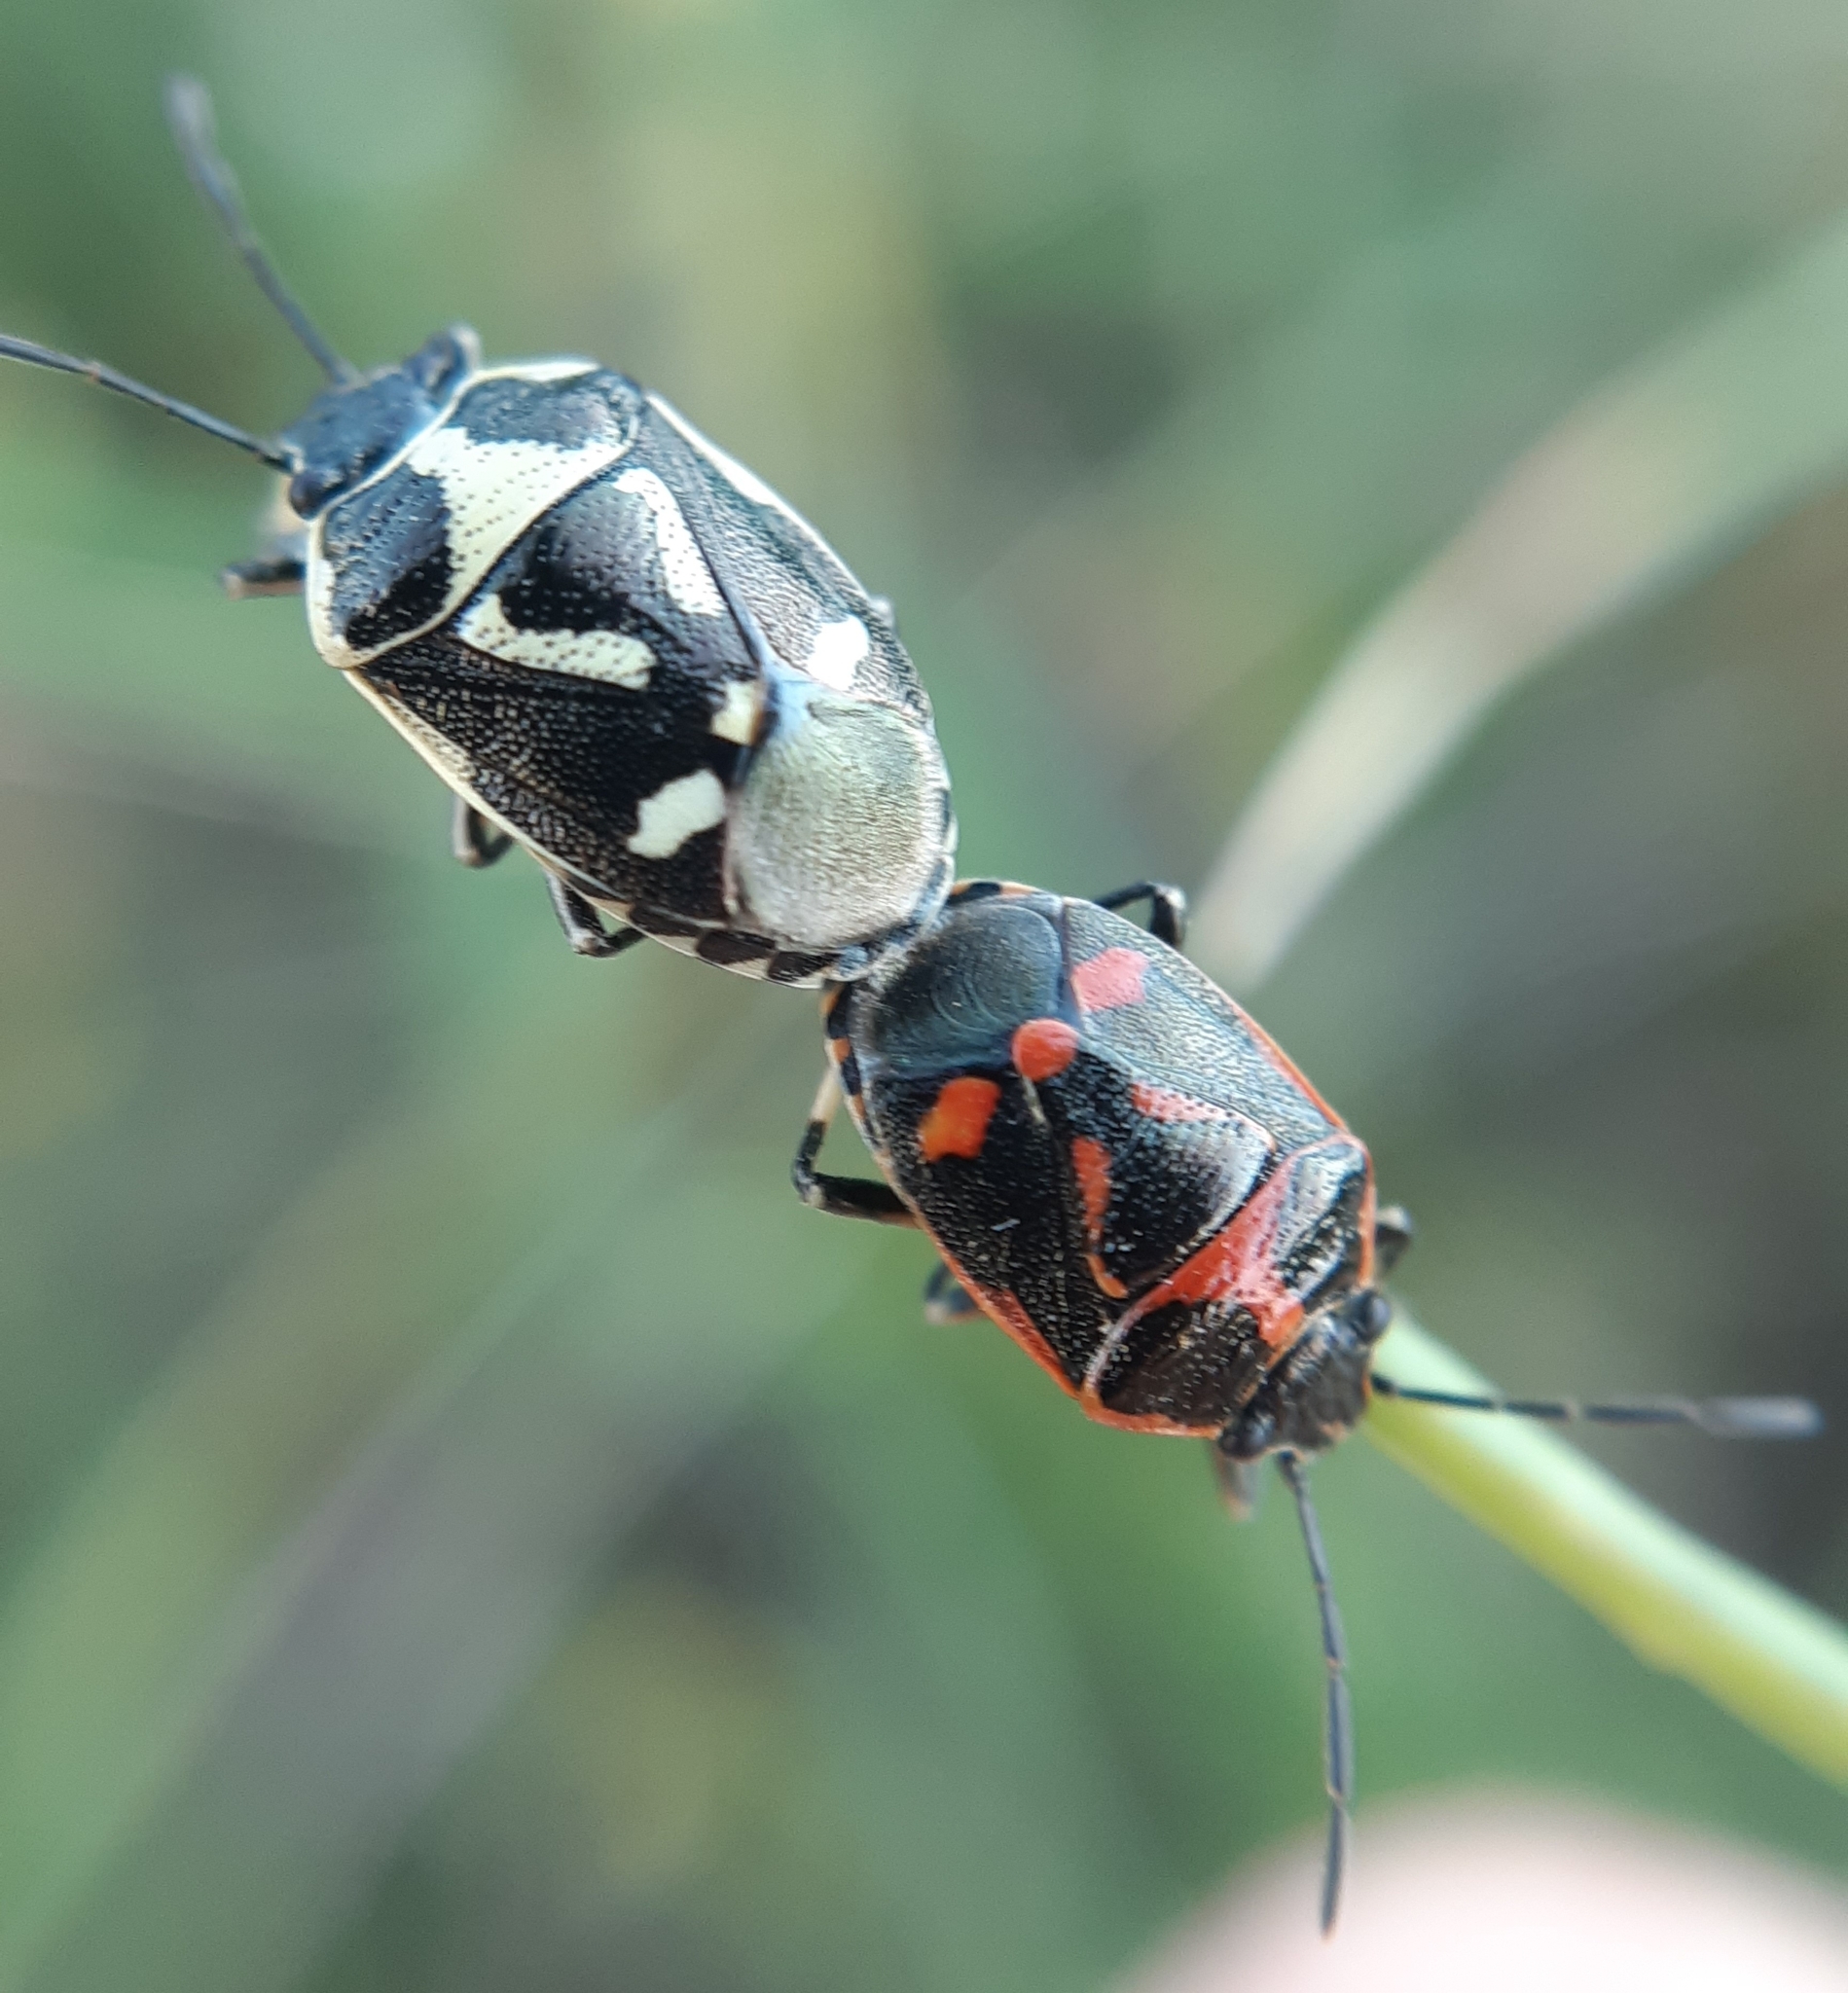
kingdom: Animalia
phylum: Arthropoda
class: Insecta
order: Hemiptera
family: Pentatomidae
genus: Eurydema
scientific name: Eurydema oleracea
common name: Cabbage bug
